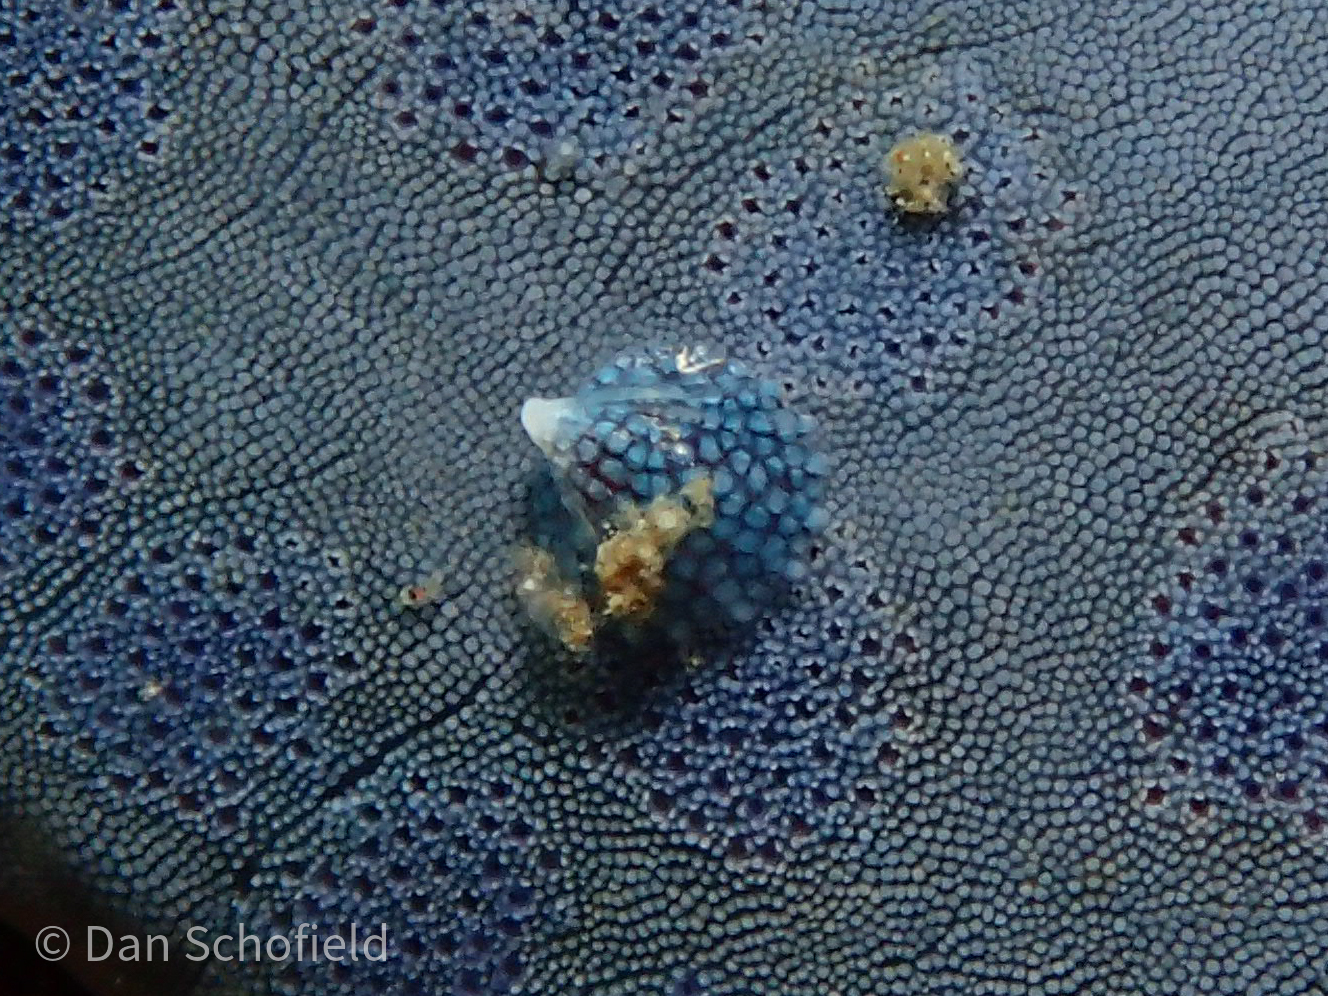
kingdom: Animalia
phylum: Mollusca
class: Gastropoda
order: Littorinimorpha
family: Eulimidae
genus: Thyca
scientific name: Thyca crystallina
